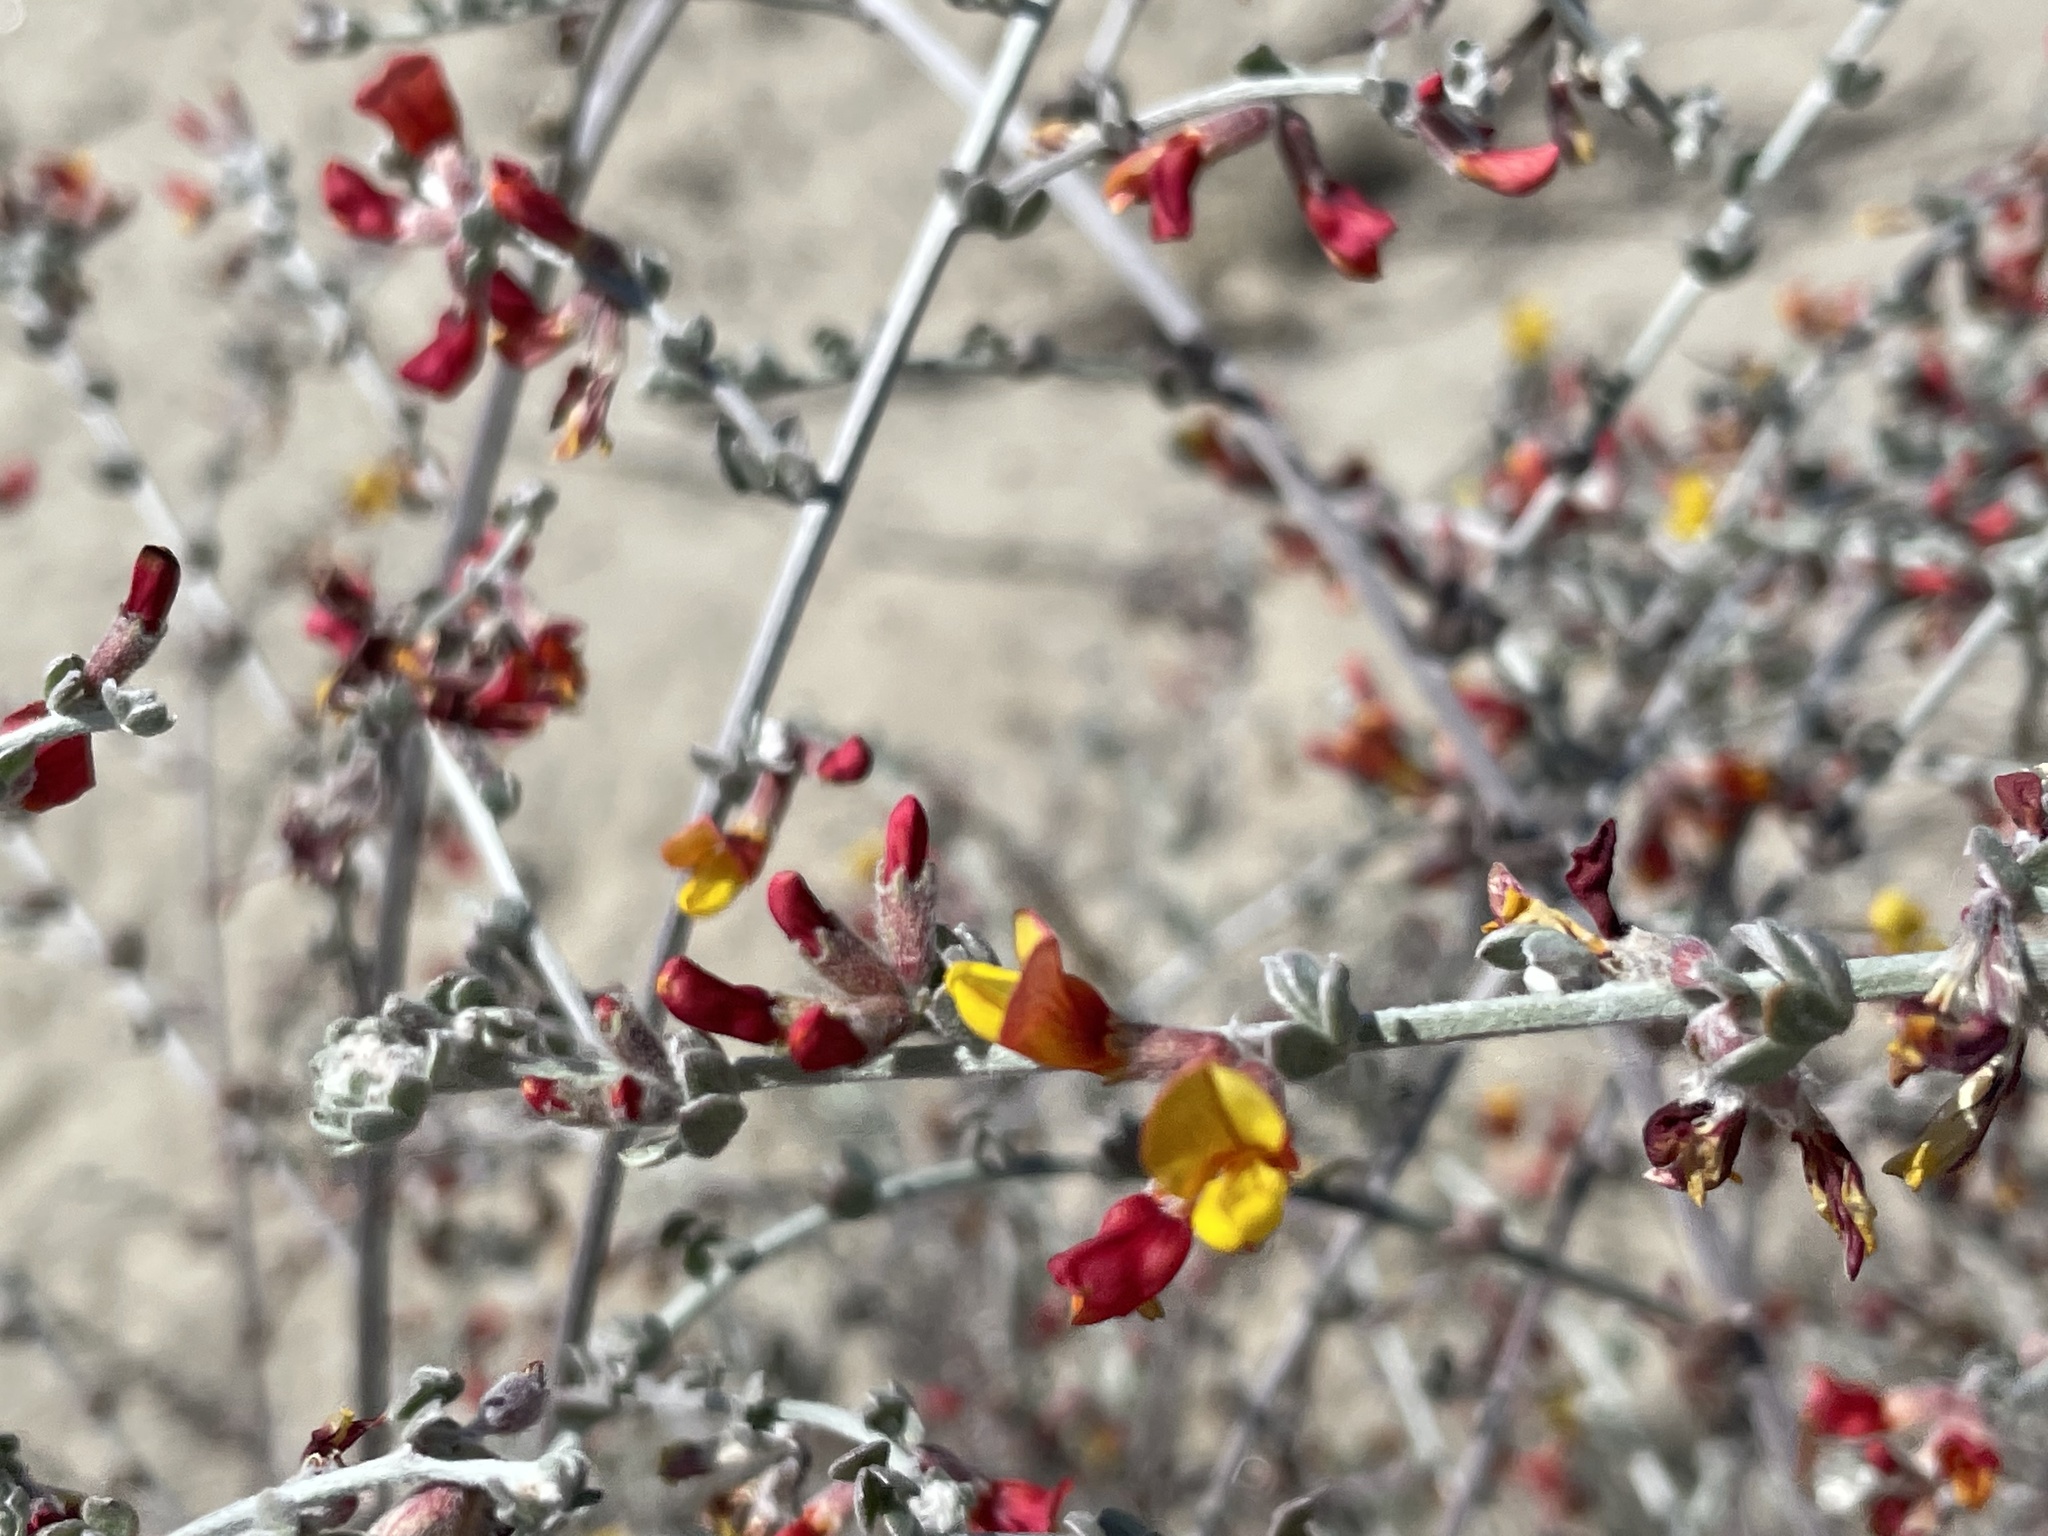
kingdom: Plantae
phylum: Tracheophyta
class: Magnoliopsida
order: Fabales
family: Fabaceae
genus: Acmispon
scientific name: Acmispon distichus
